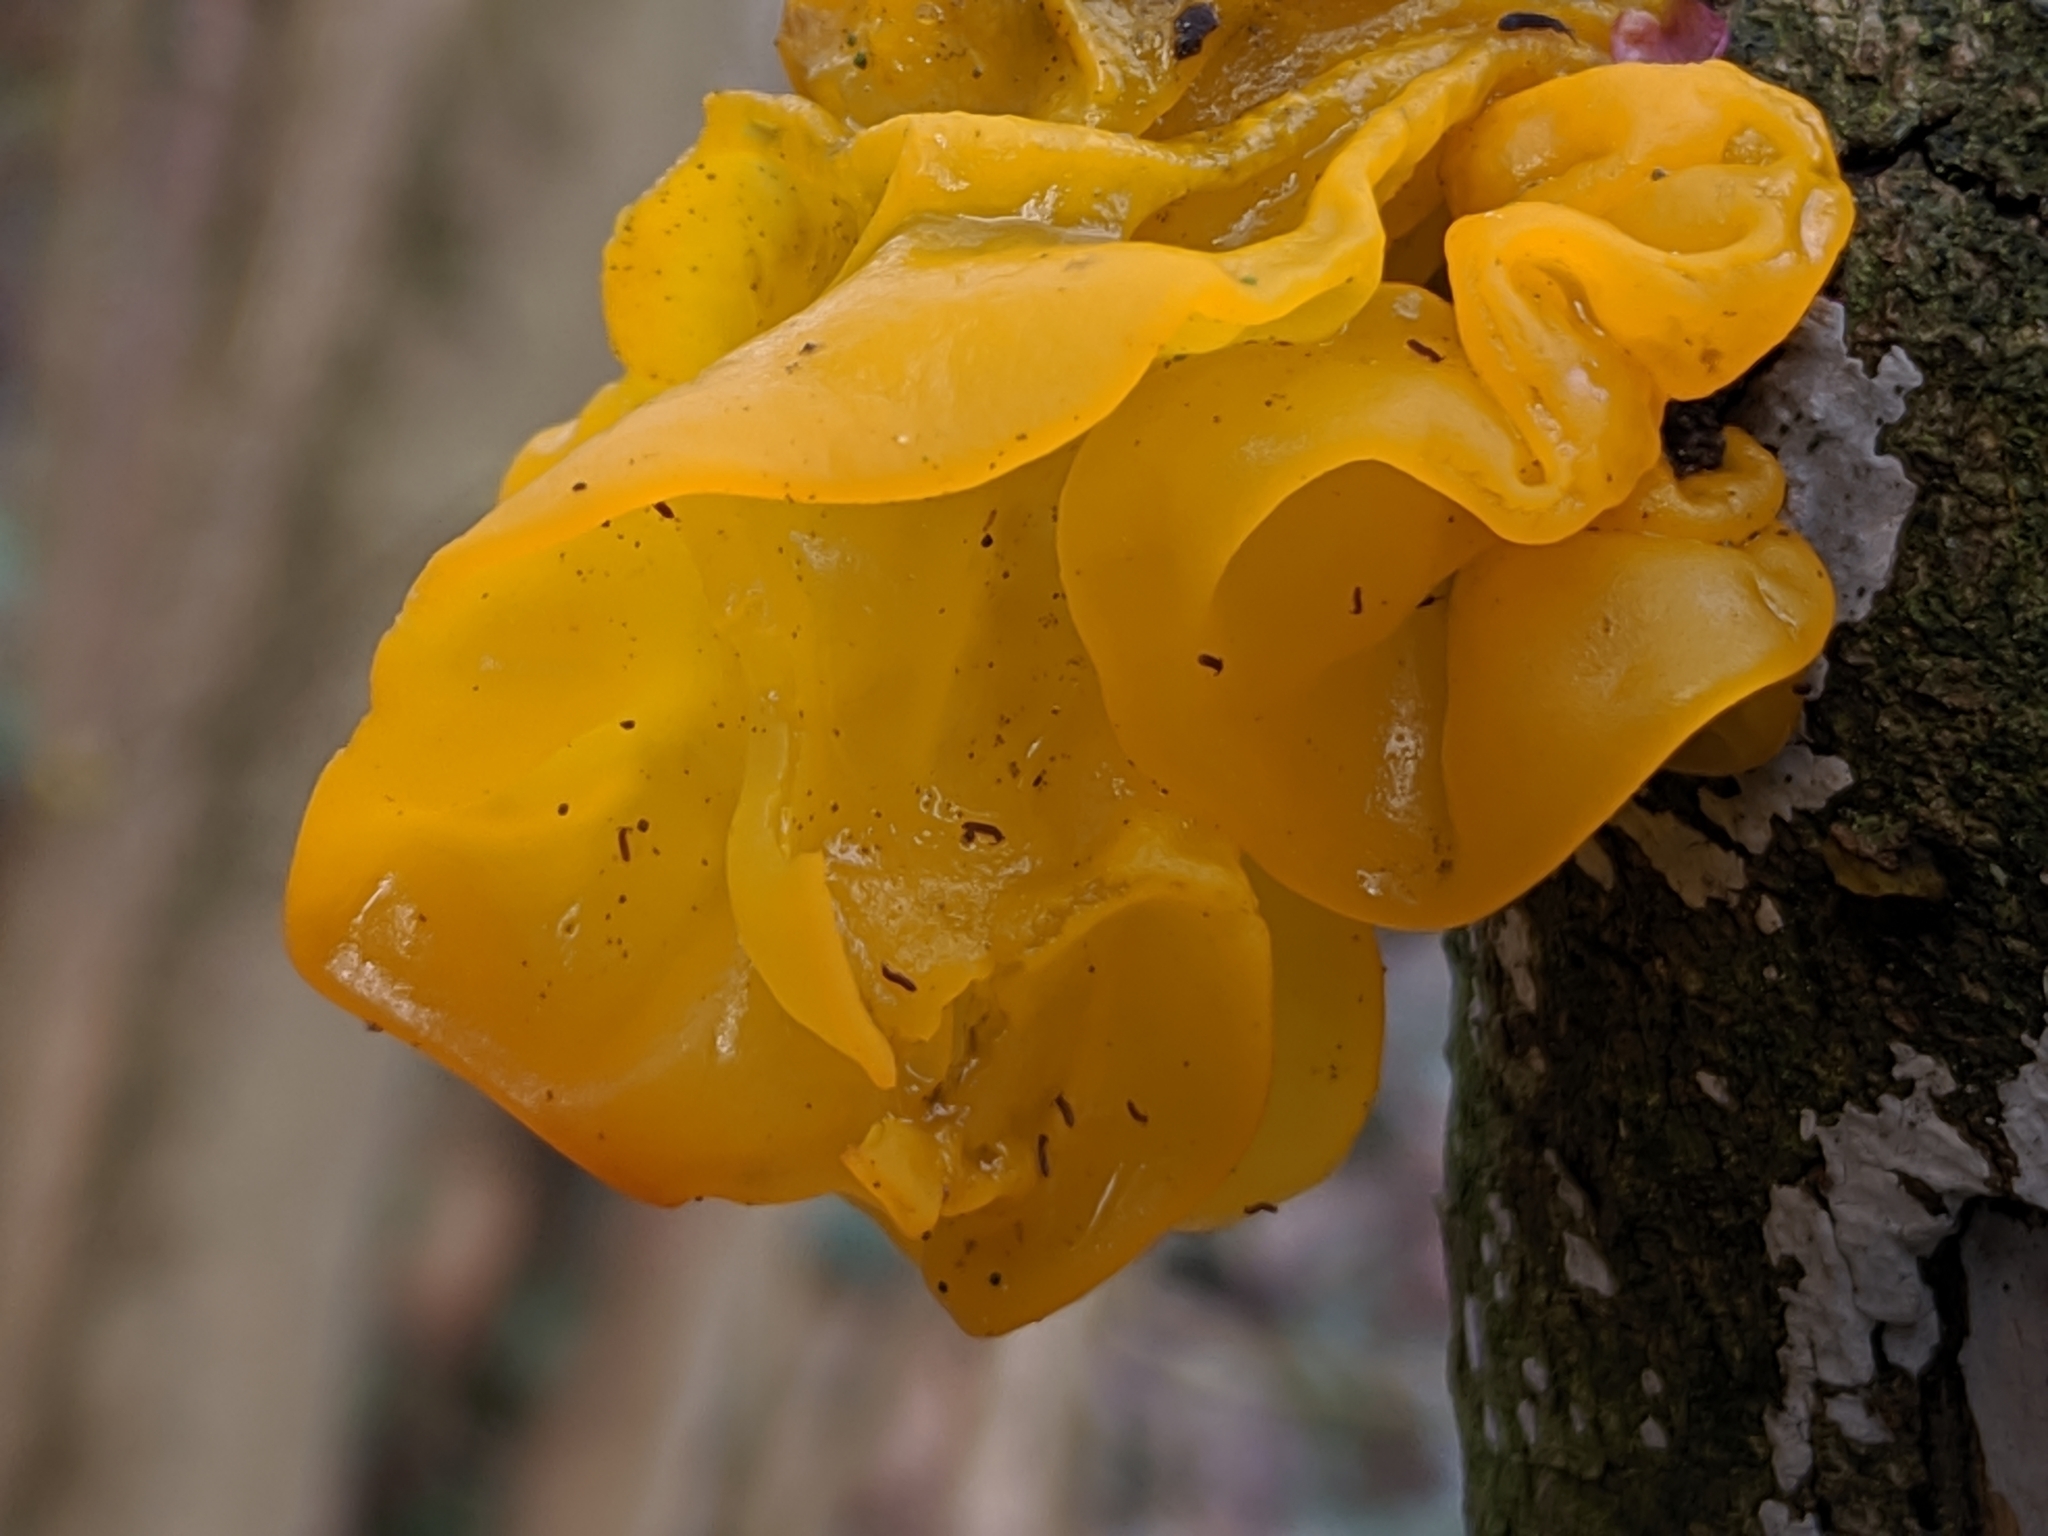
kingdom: Fungi
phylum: Basidiomycota
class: Tremellomycetes
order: Tremellales
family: Tremellaceae
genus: Tremella
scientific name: Tremella mesenterica
